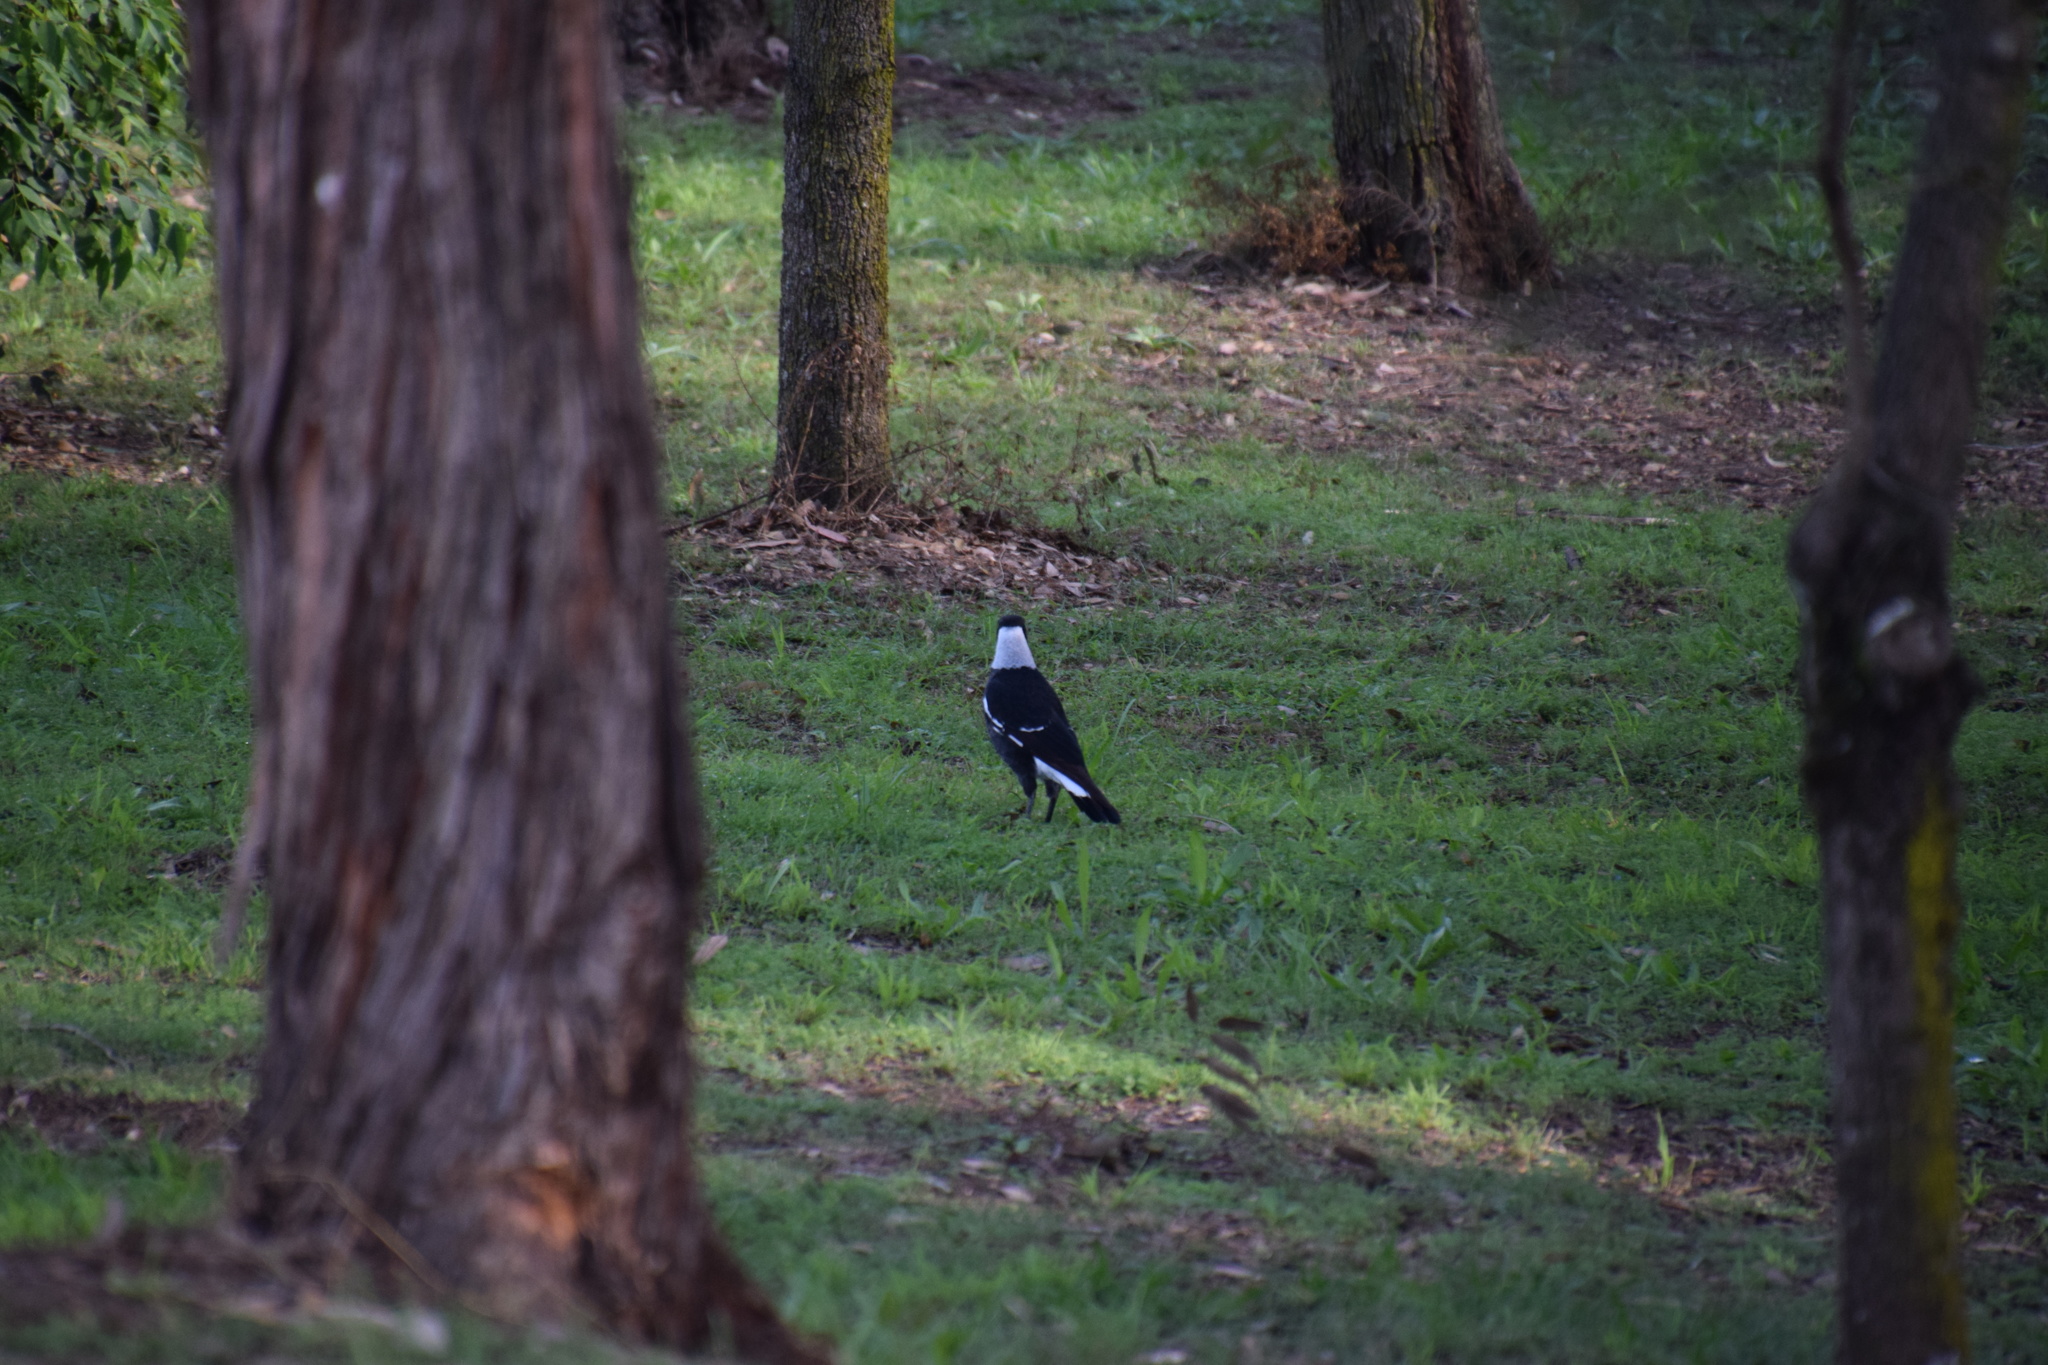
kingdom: Animalia
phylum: Chordata
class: Aves
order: Passeriformes
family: Cracticidae
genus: Gymnorhina
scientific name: Gymnorhina tibicen
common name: Australian magpie
